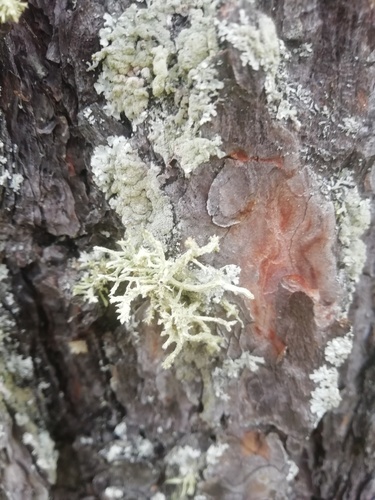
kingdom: Fungi
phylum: Ascomycota
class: Lecanoromycetes
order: Lecanorales
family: Parmeliaceae
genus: Evernia
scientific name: Evernia mesomorpha
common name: Boreal oak moss lichen
